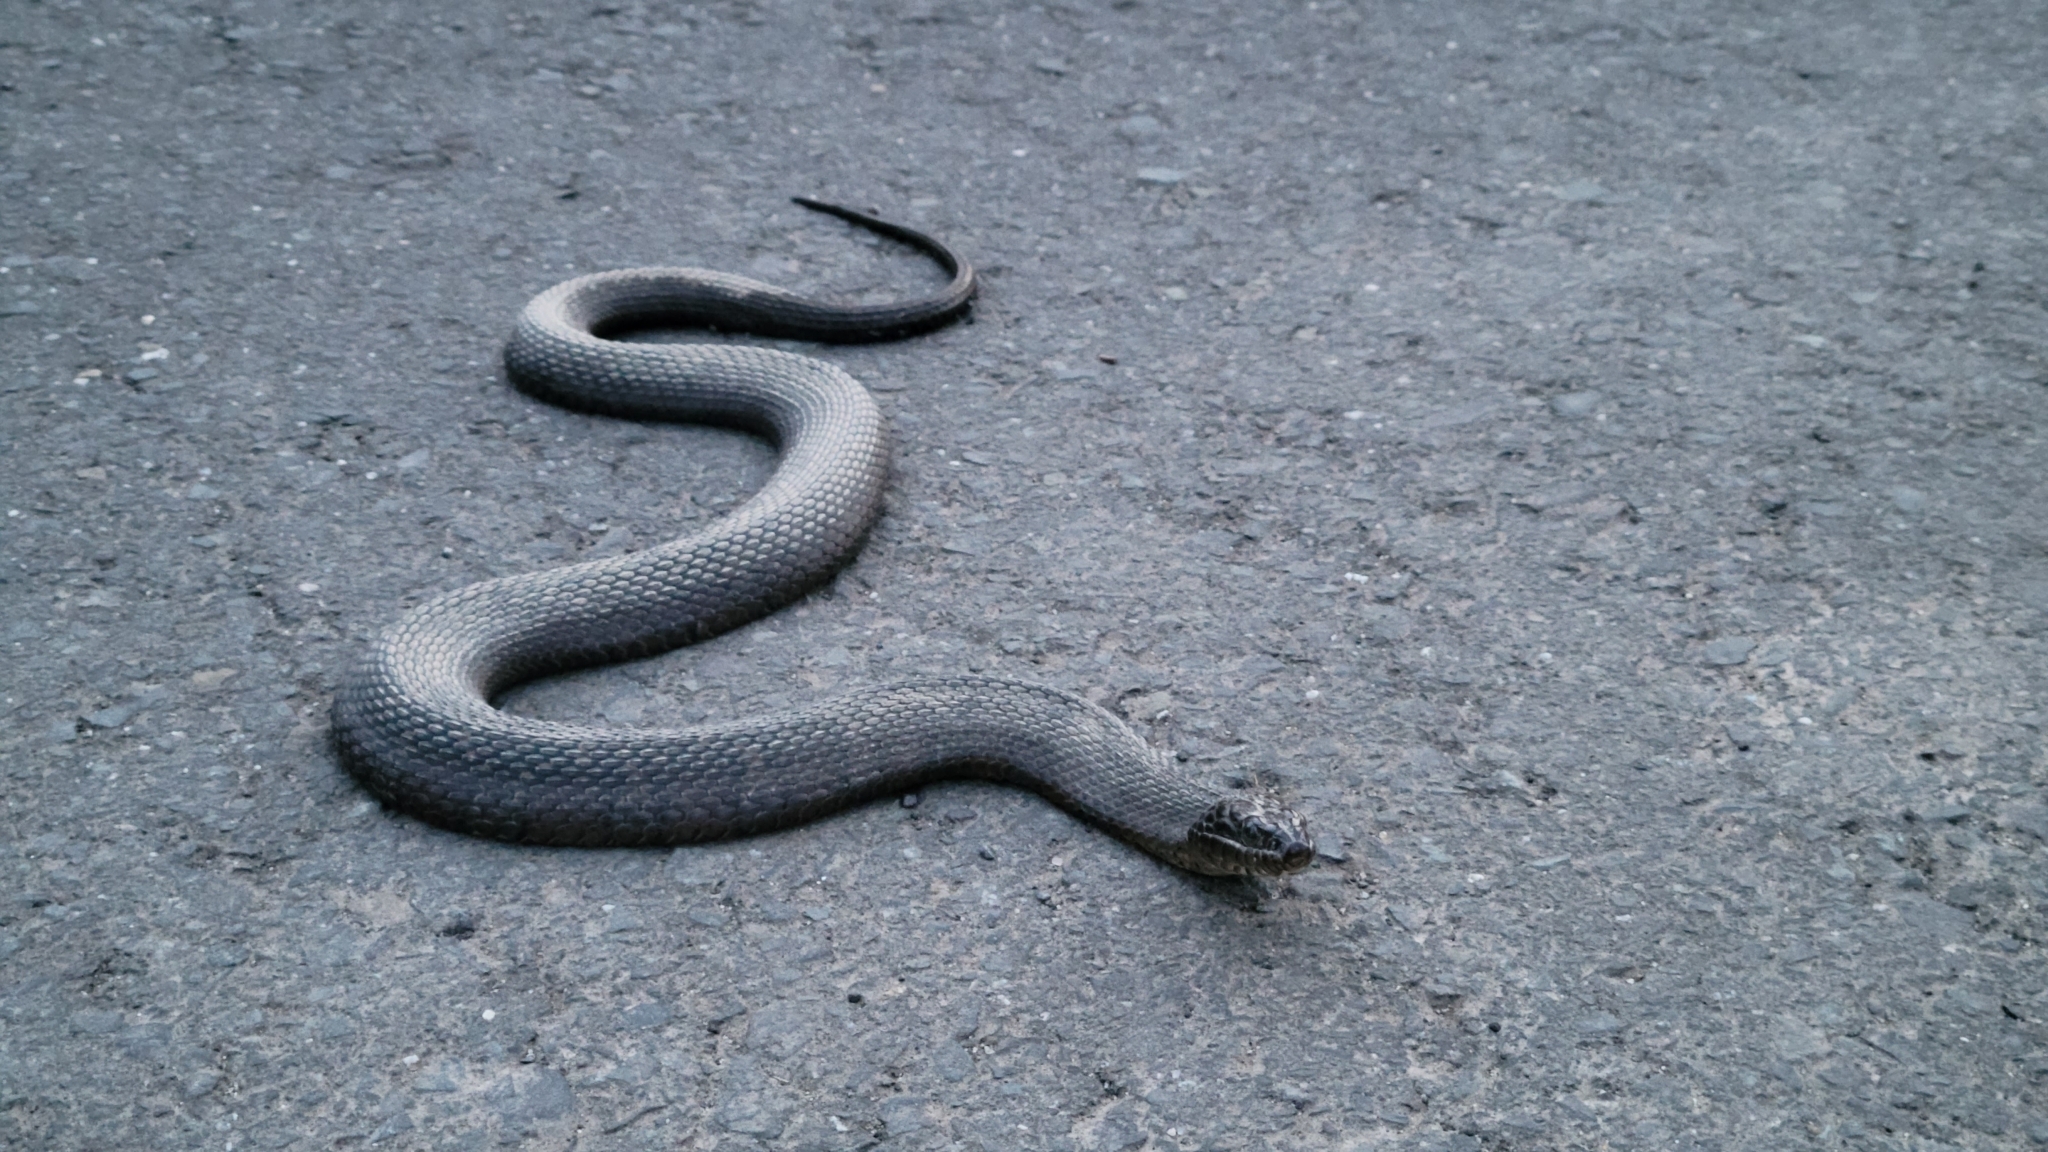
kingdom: Animalia
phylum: Chordata
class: Squamata
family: Colubridae
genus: Nerodia
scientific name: Nerodia sipedon
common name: Northern water snake
